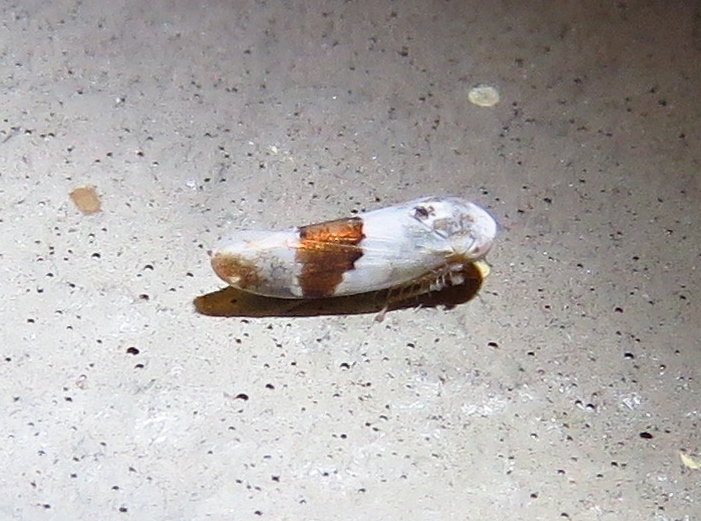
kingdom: Animalia
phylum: Arthropoda
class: Insecta
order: Hemiptera
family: Cicadellidae
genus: Norvellina
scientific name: Norvellina seminuda
